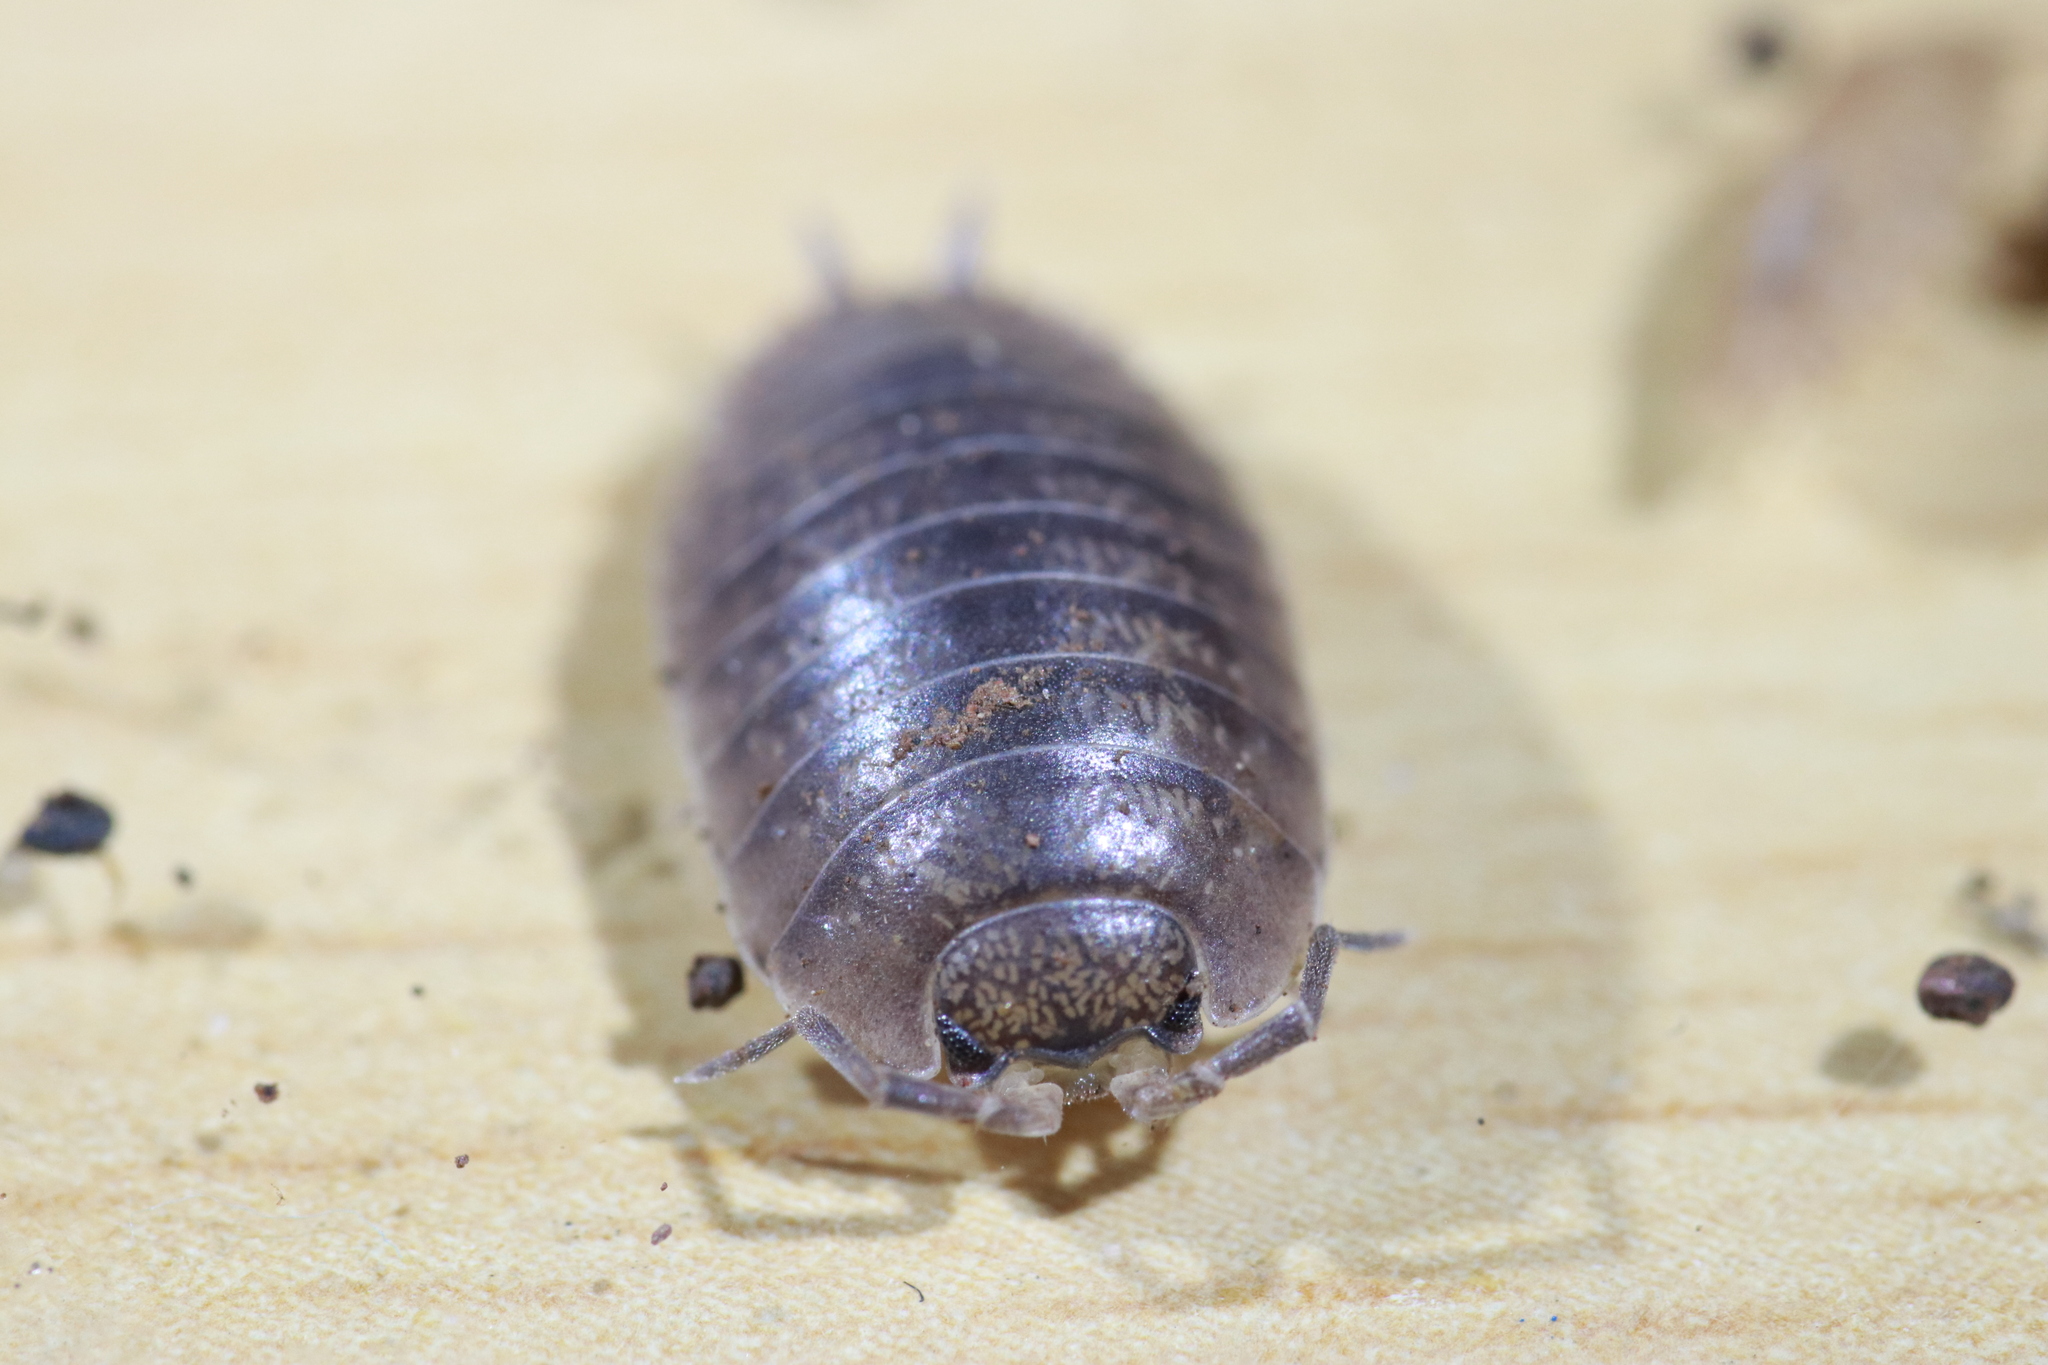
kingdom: Animalia
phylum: Arthropoda
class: Malacostraca
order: Isopoda
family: Porcellionidae
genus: Porcellio
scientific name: Porcellio laevis
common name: Swift woodlouse
